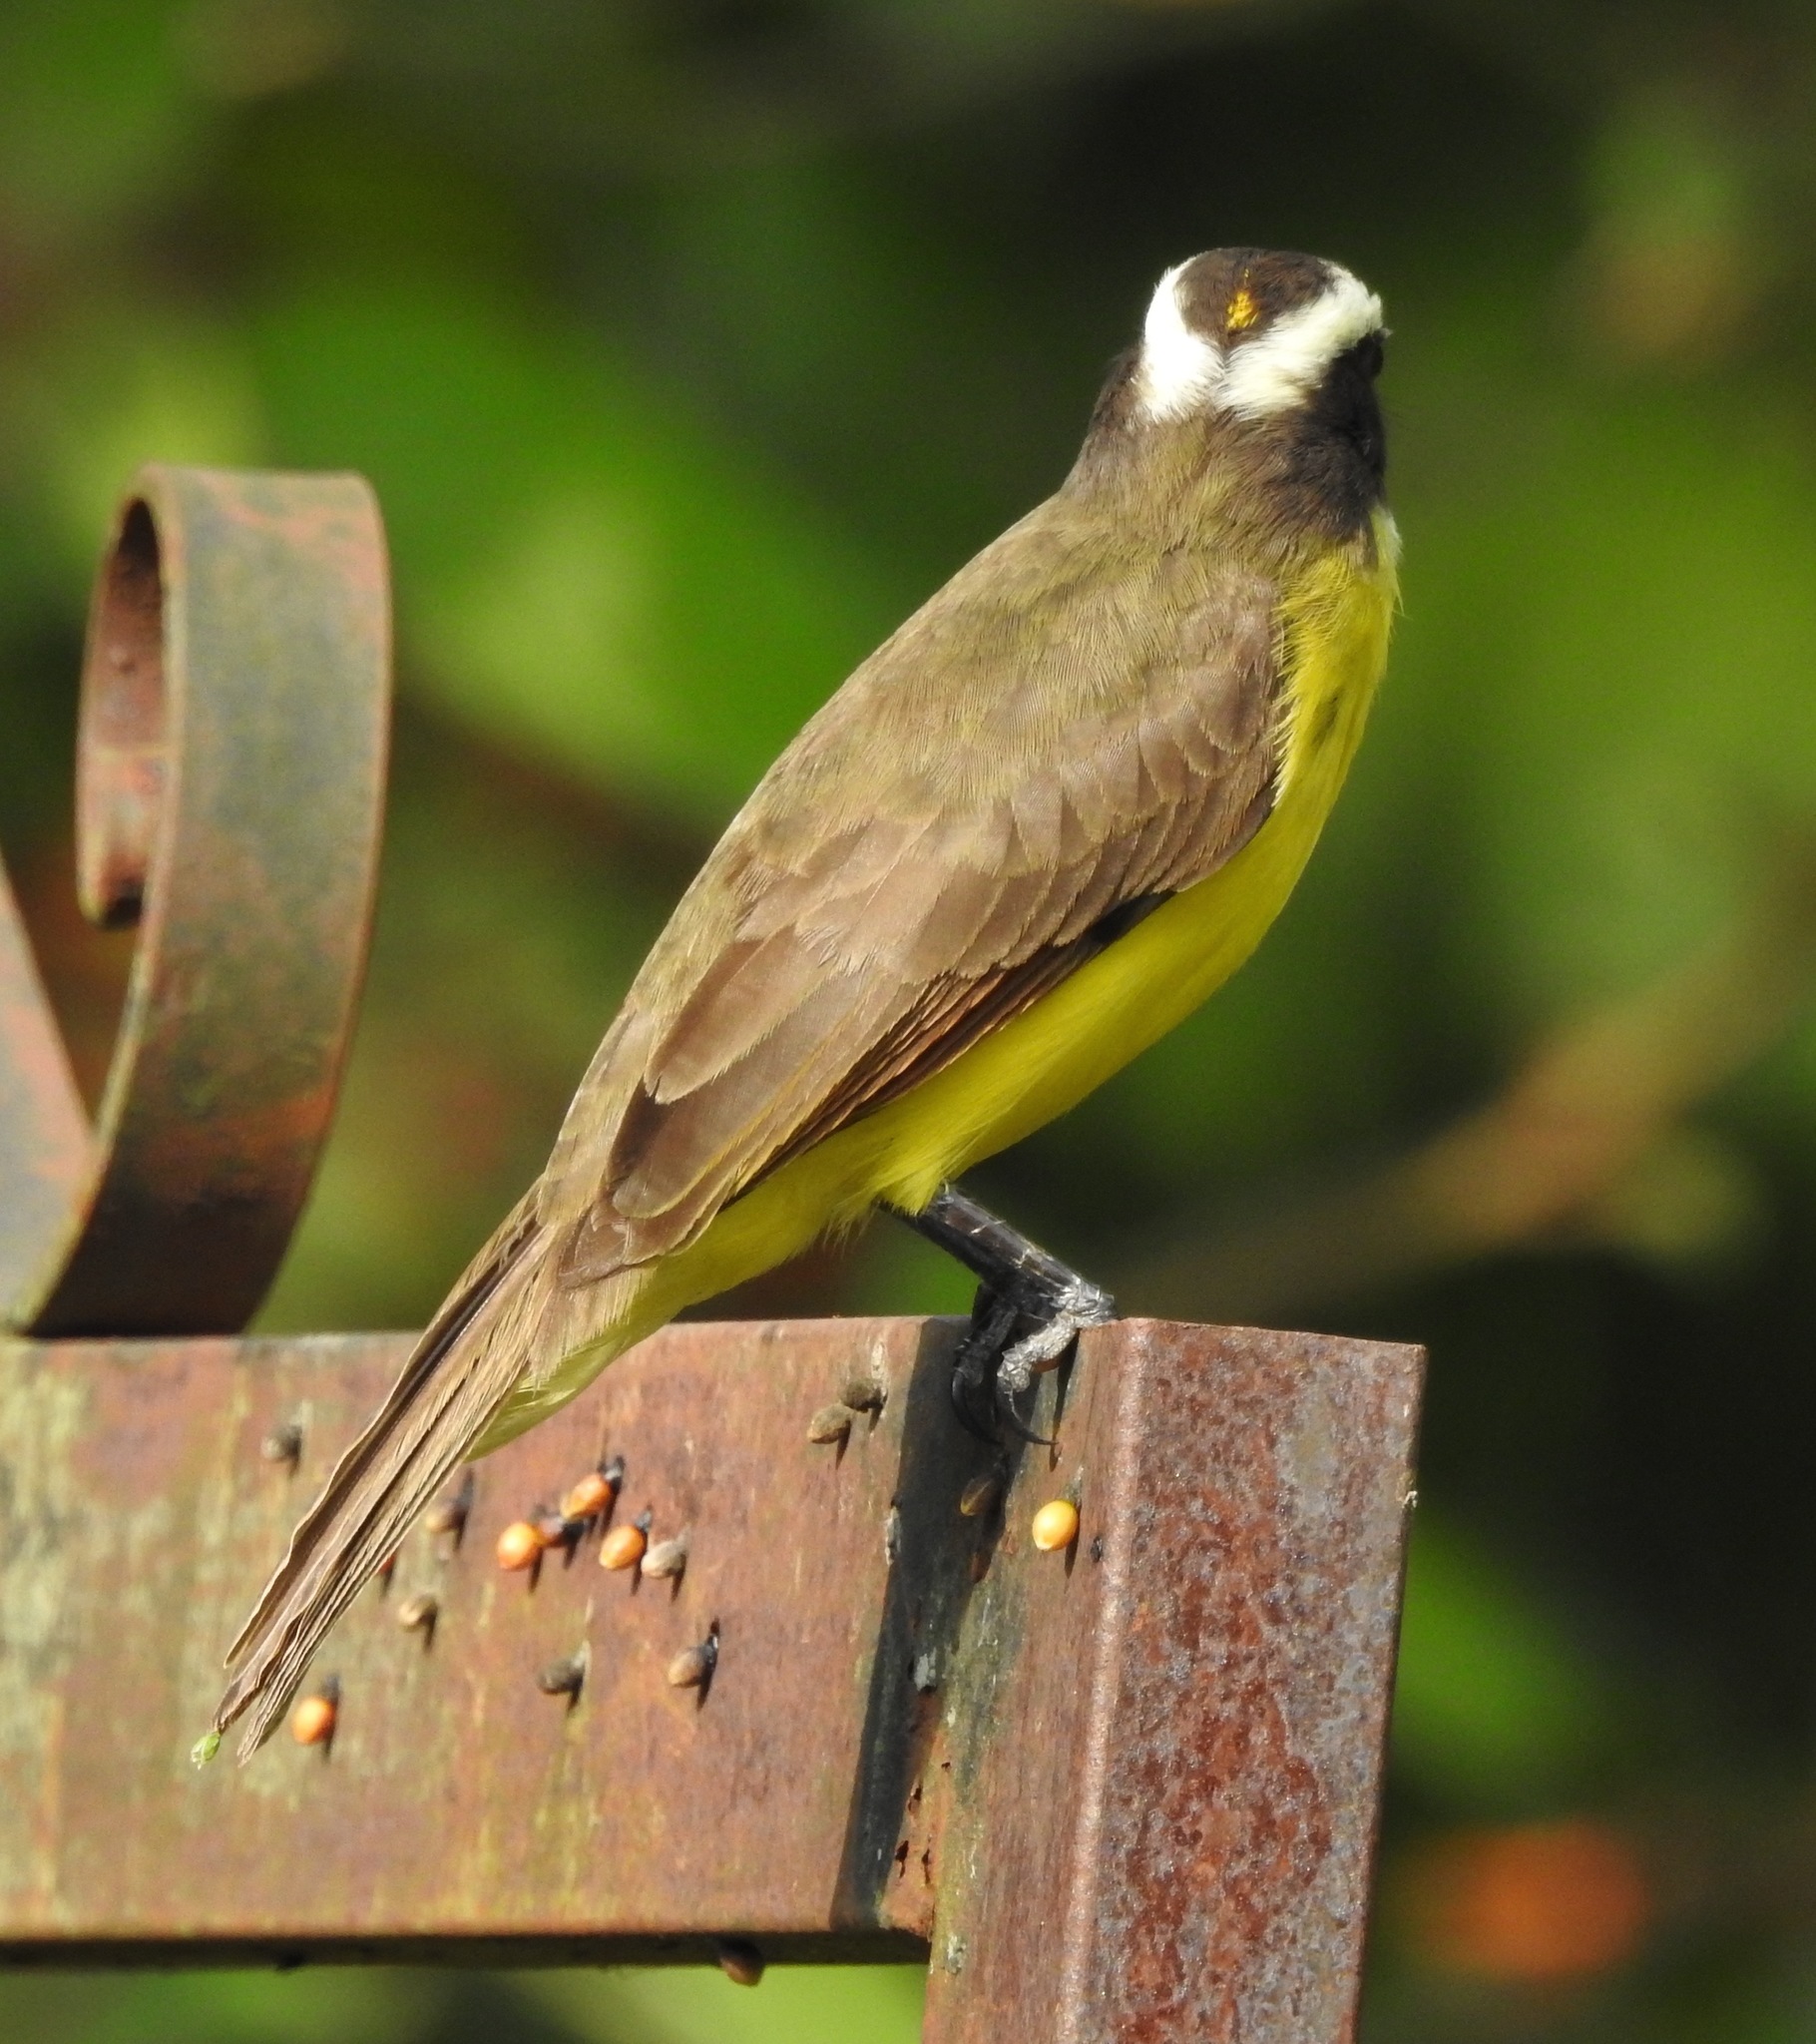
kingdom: Animalia
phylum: Chordata
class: Aves
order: Passeriformes
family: Tyrannidae
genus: Myiozetetes
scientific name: Myiozetetes cayanensis
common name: Rusty-margined flycatcher
